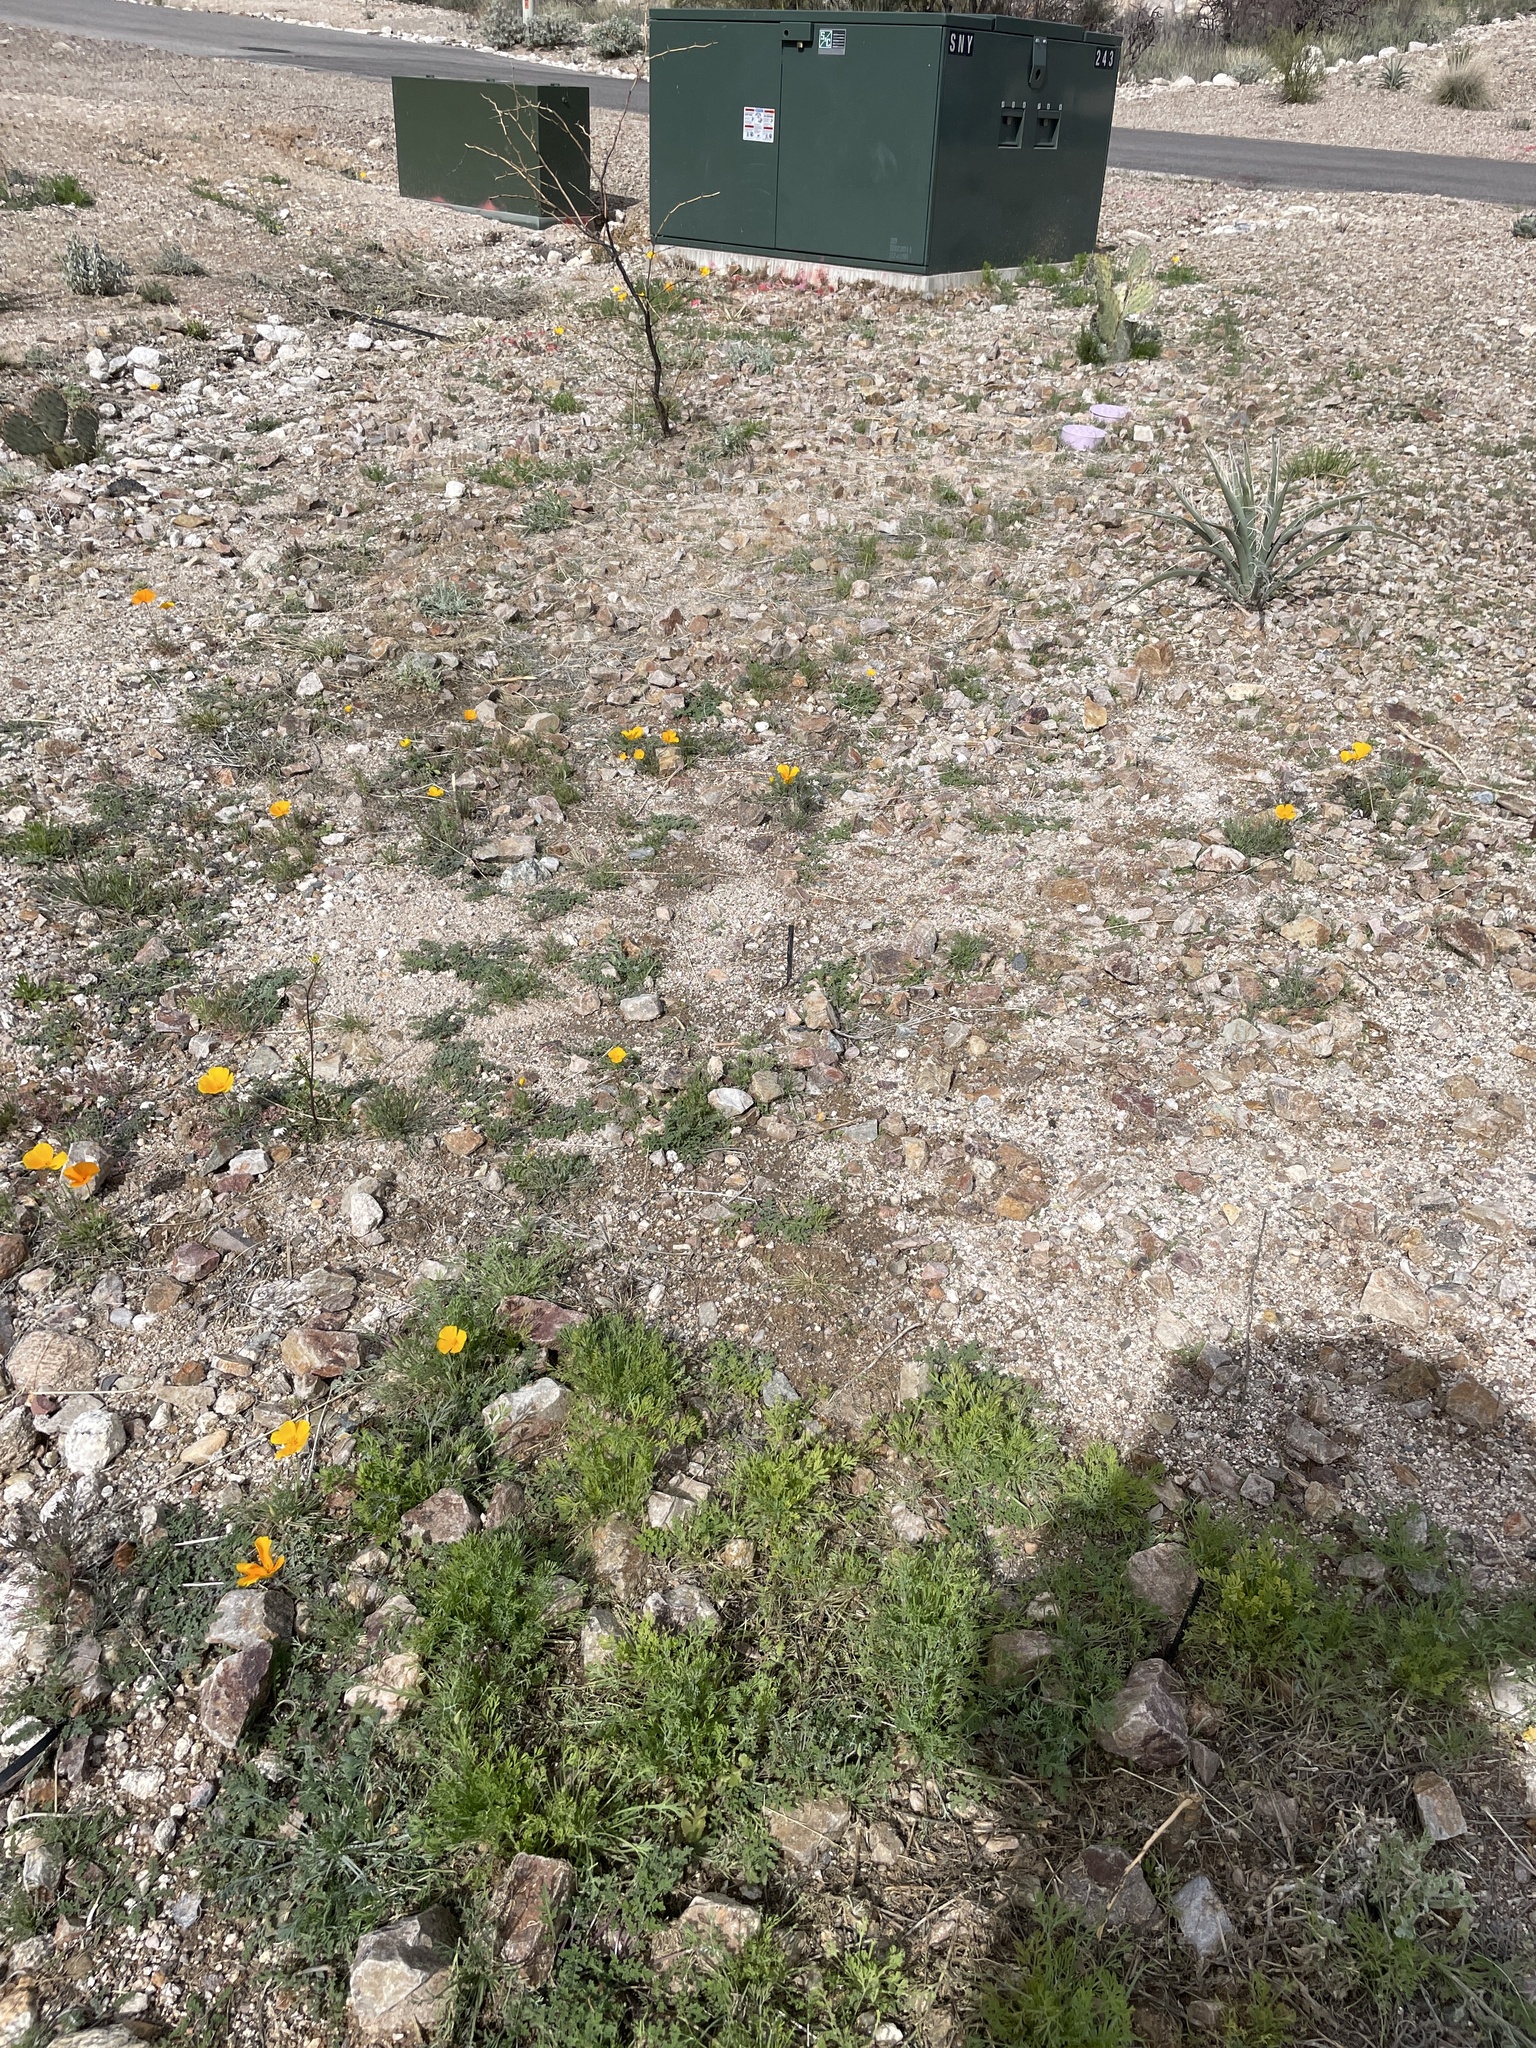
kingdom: Plantae
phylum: Tracheophyta
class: Magnoliopsida
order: Ranunculales
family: Papaveraceae
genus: Eschscholzia
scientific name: Eschscholzia californica
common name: California poppy
